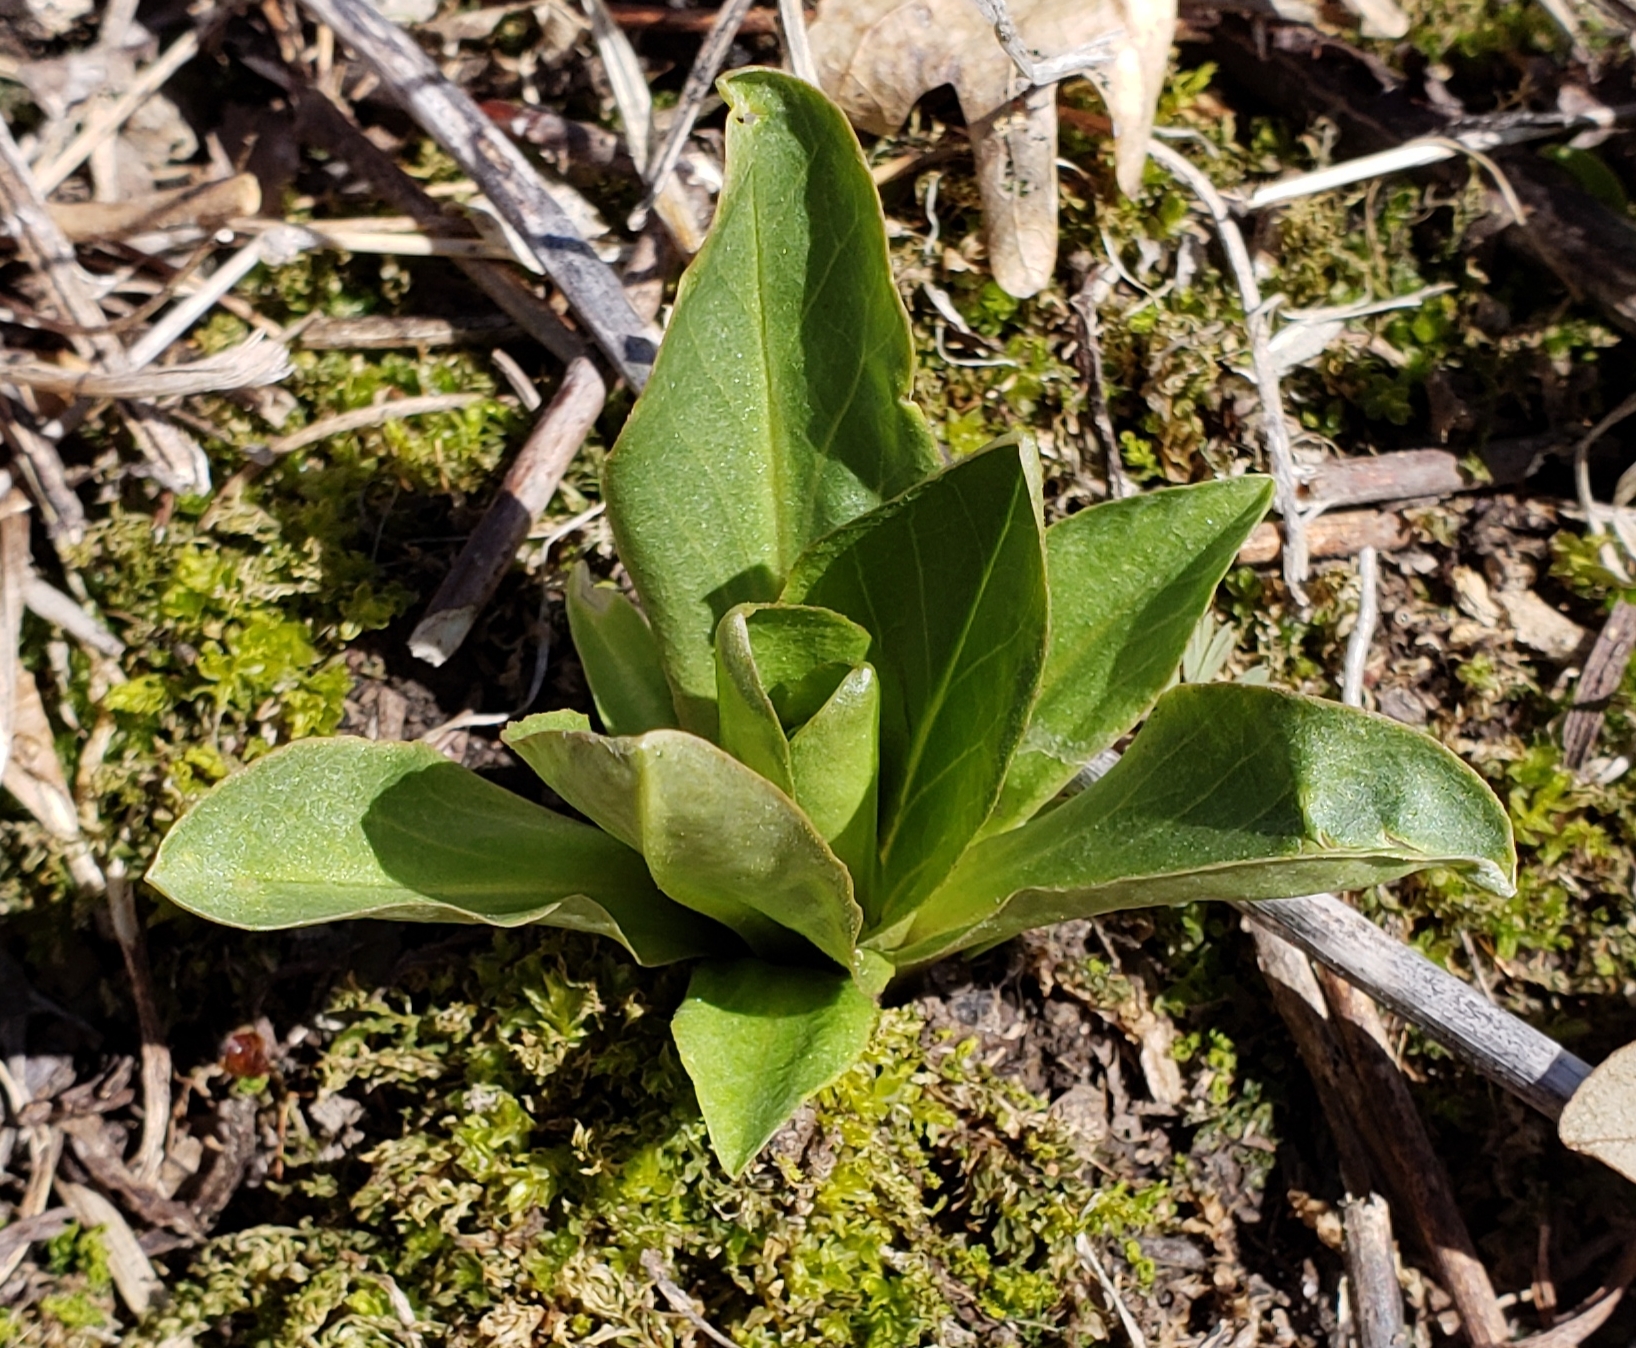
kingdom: Plantae
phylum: Tracheophyta
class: Magnoliopsida
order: Ericales
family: Primulaceae
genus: Dodecatheon
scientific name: Dodecatheon meadia
